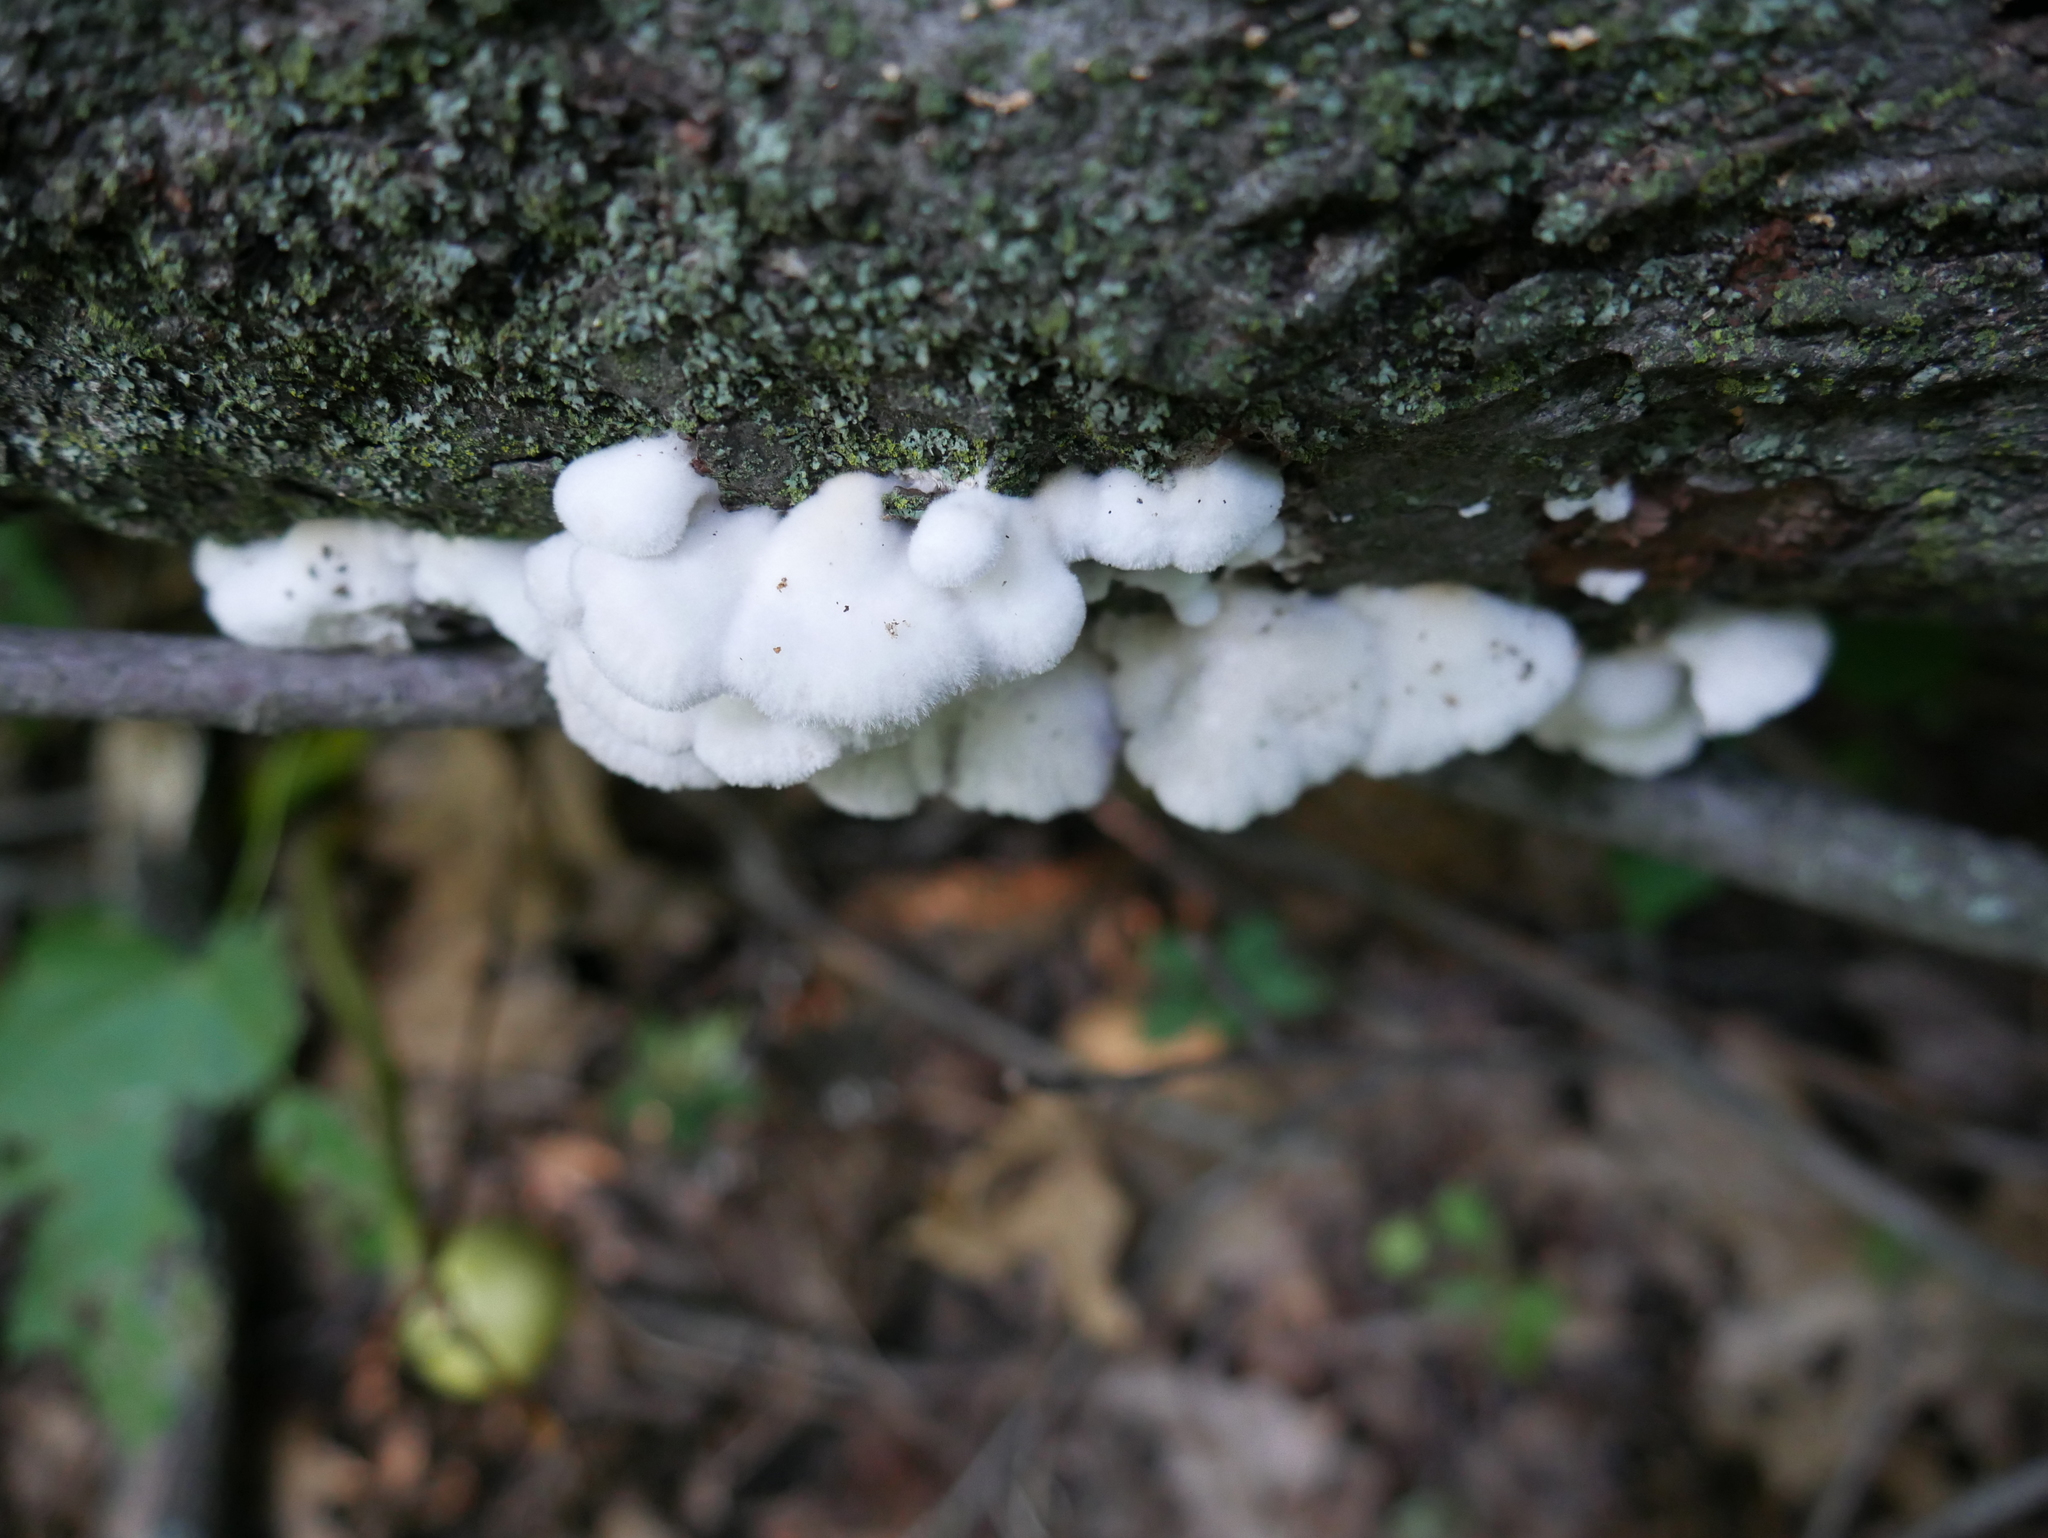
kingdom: Fungi
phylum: Basidiomycota
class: Agaricomycetes
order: Agaricales
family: Schizophyllaceae
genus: Schizophyllum
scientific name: Schizophyllum commune
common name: Common porecrust
